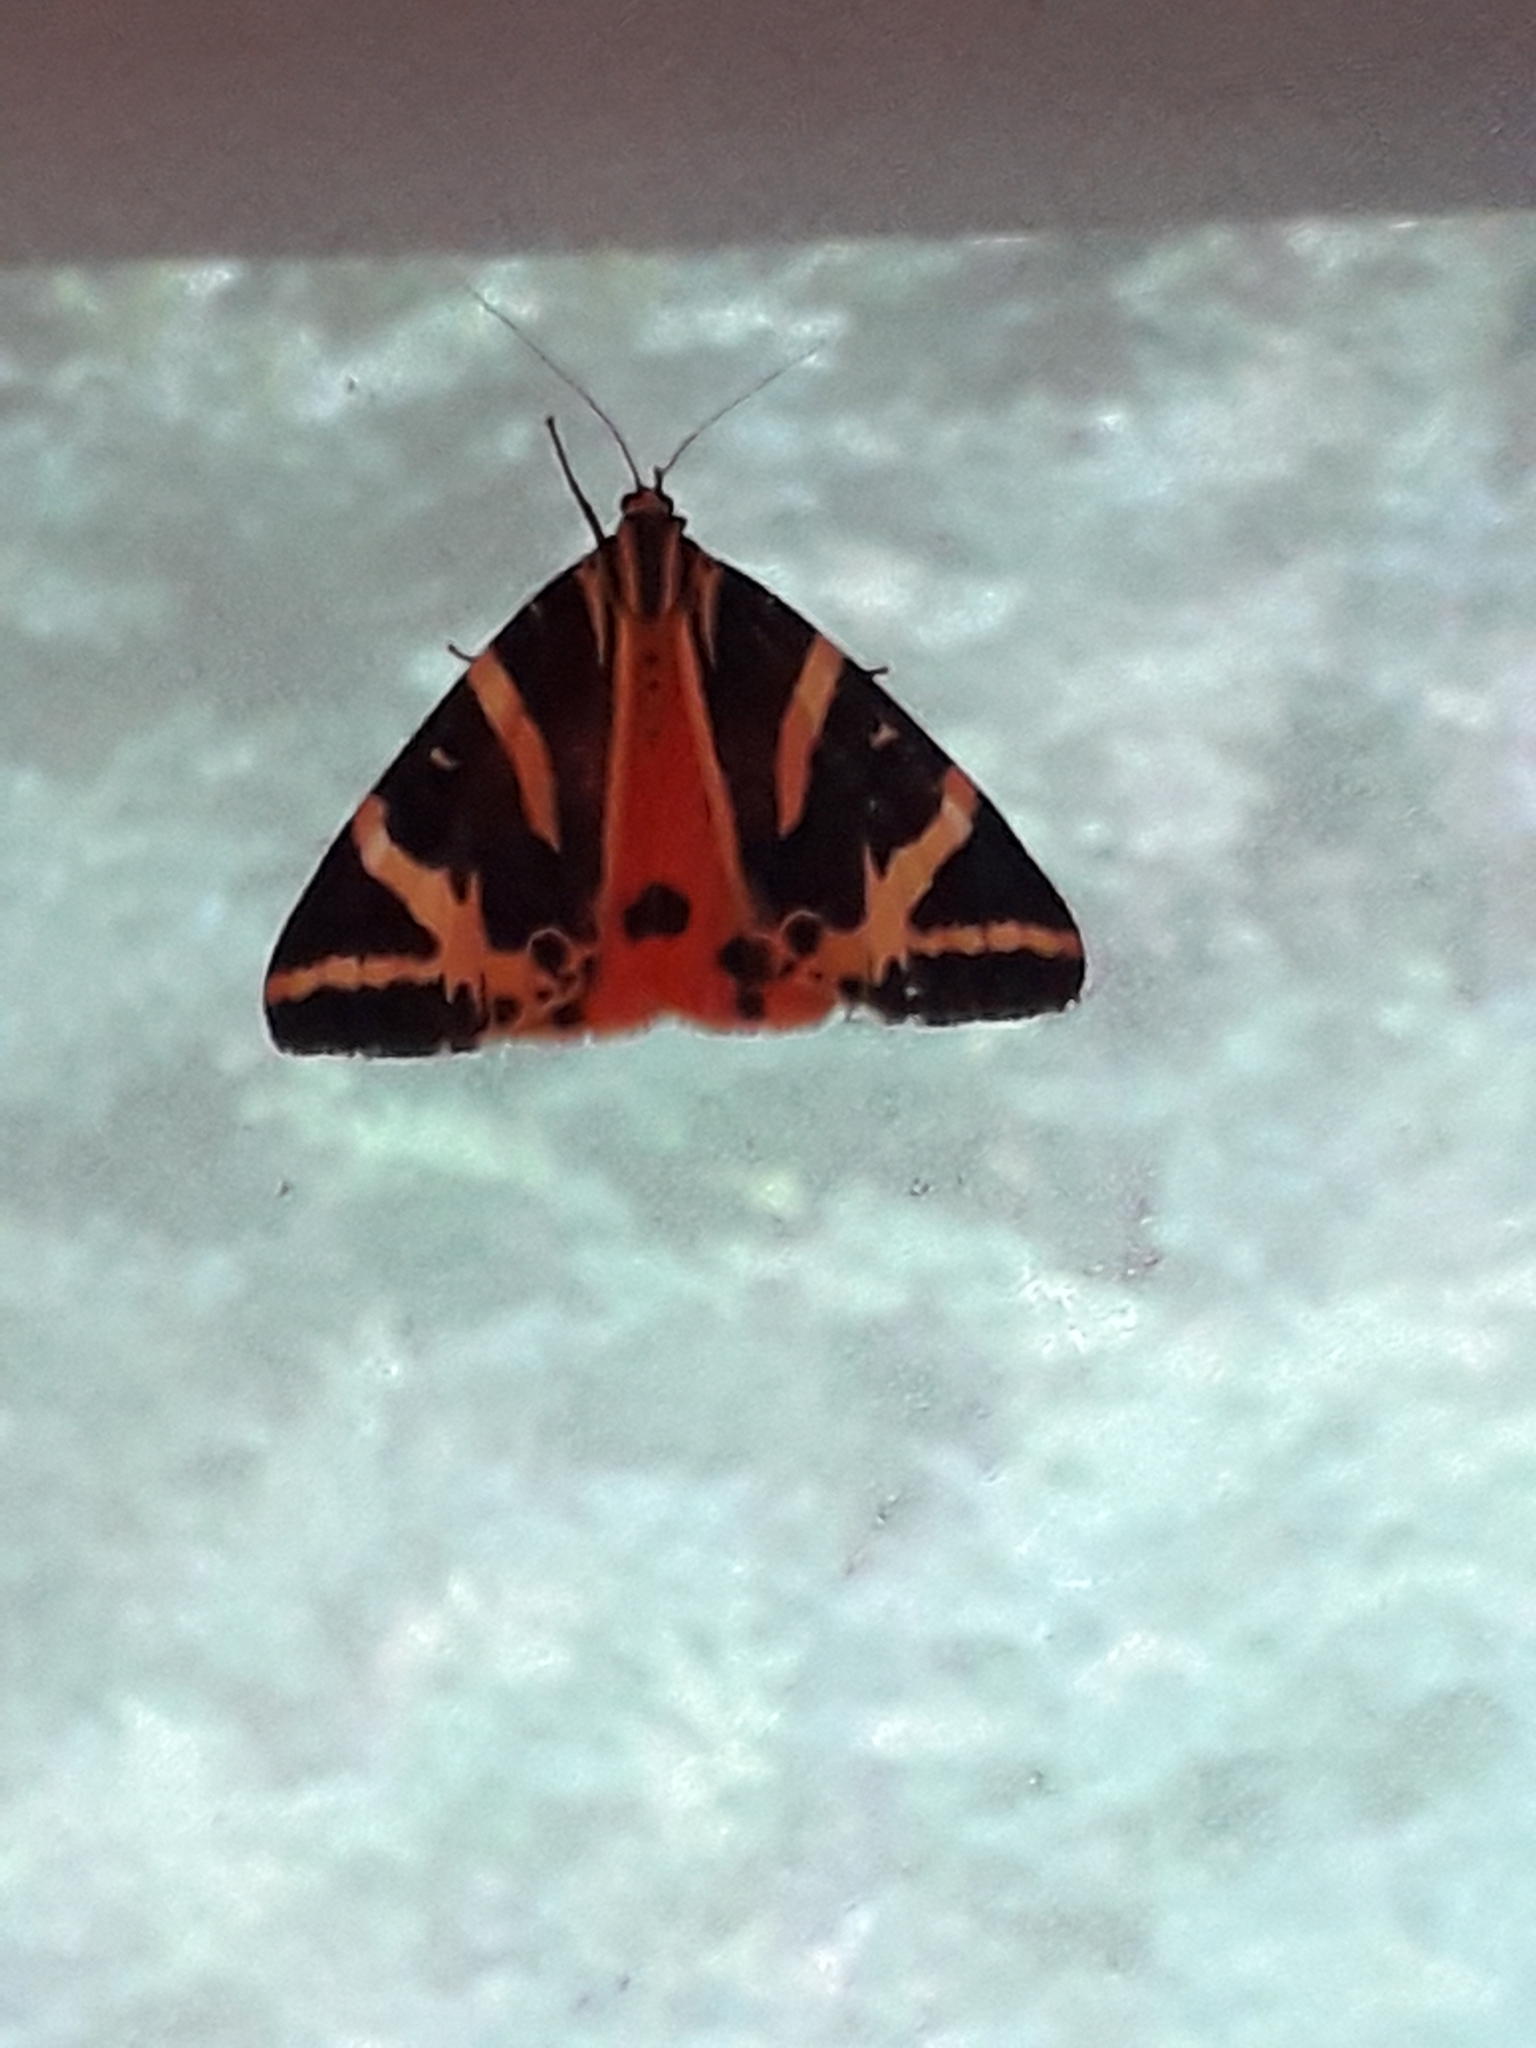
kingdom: Animalia
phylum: Arthropoda
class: Insecta
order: Lepidoptera
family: Erebidae
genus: Euplagia
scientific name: Euplagia quadripunctaria
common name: Jersey tiger
